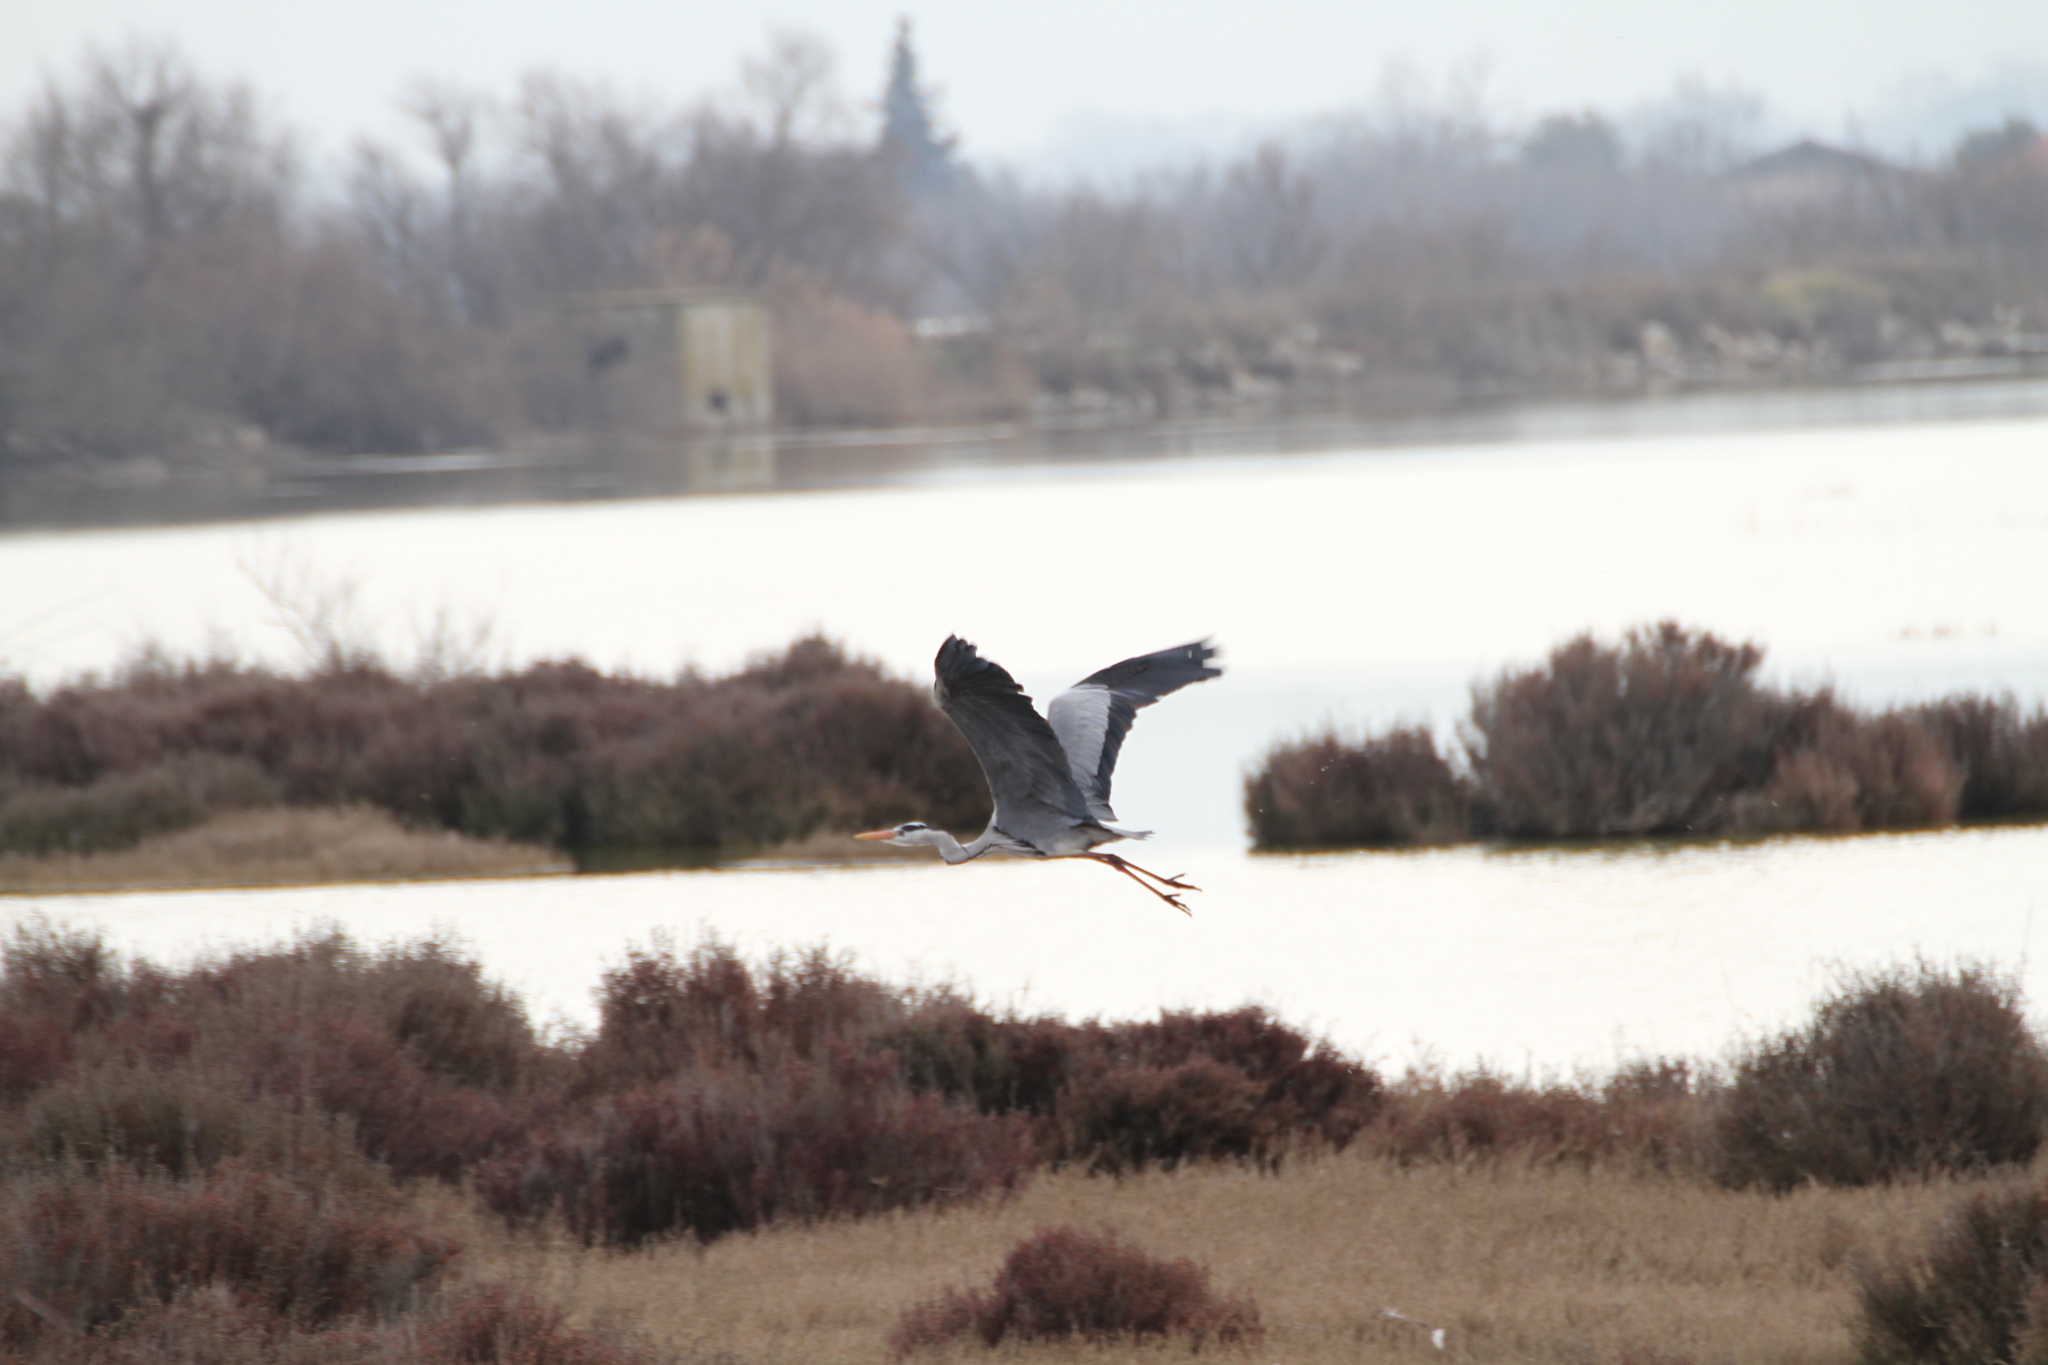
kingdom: Animalia
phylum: Chordata
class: Aves
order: Pelecaniformes
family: Ardeidae
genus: Ardea
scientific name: Ardea cinerea
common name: Grey heron
